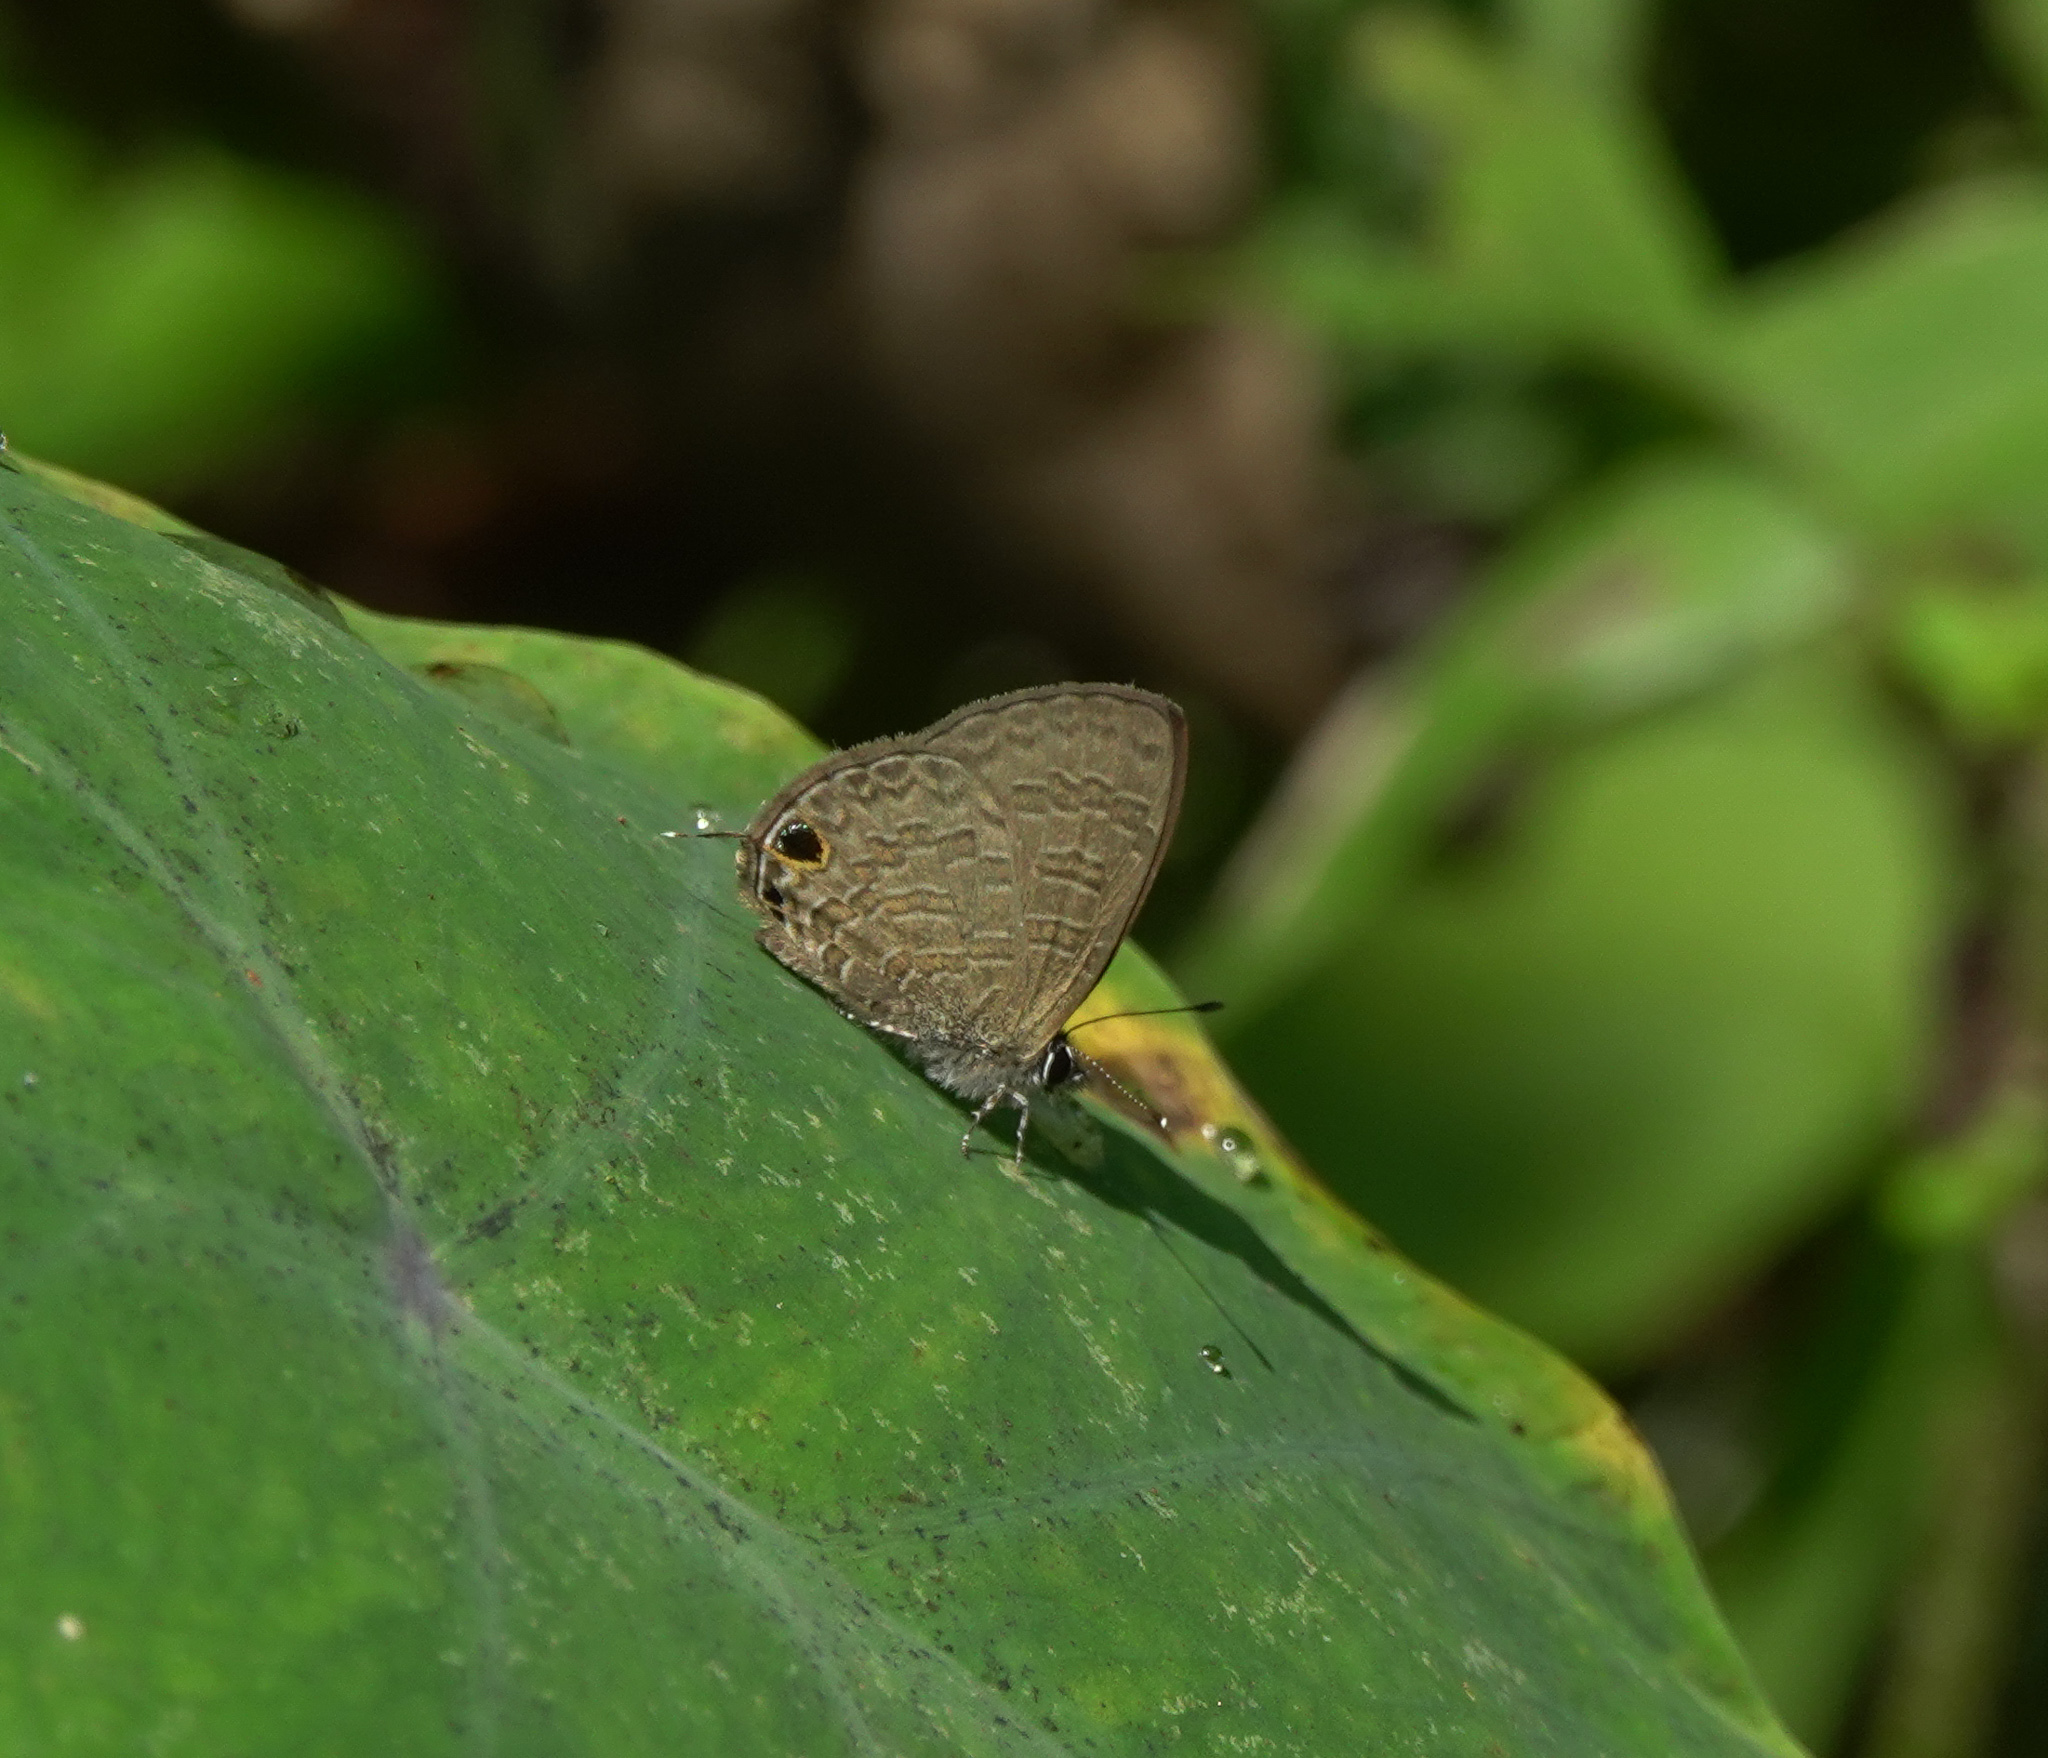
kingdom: Animalia
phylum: Arthropoda
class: Insecta
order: Lepidoptera
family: Lycaenidae
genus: Prosotas
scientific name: Prosotas nora
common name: Common line blue
